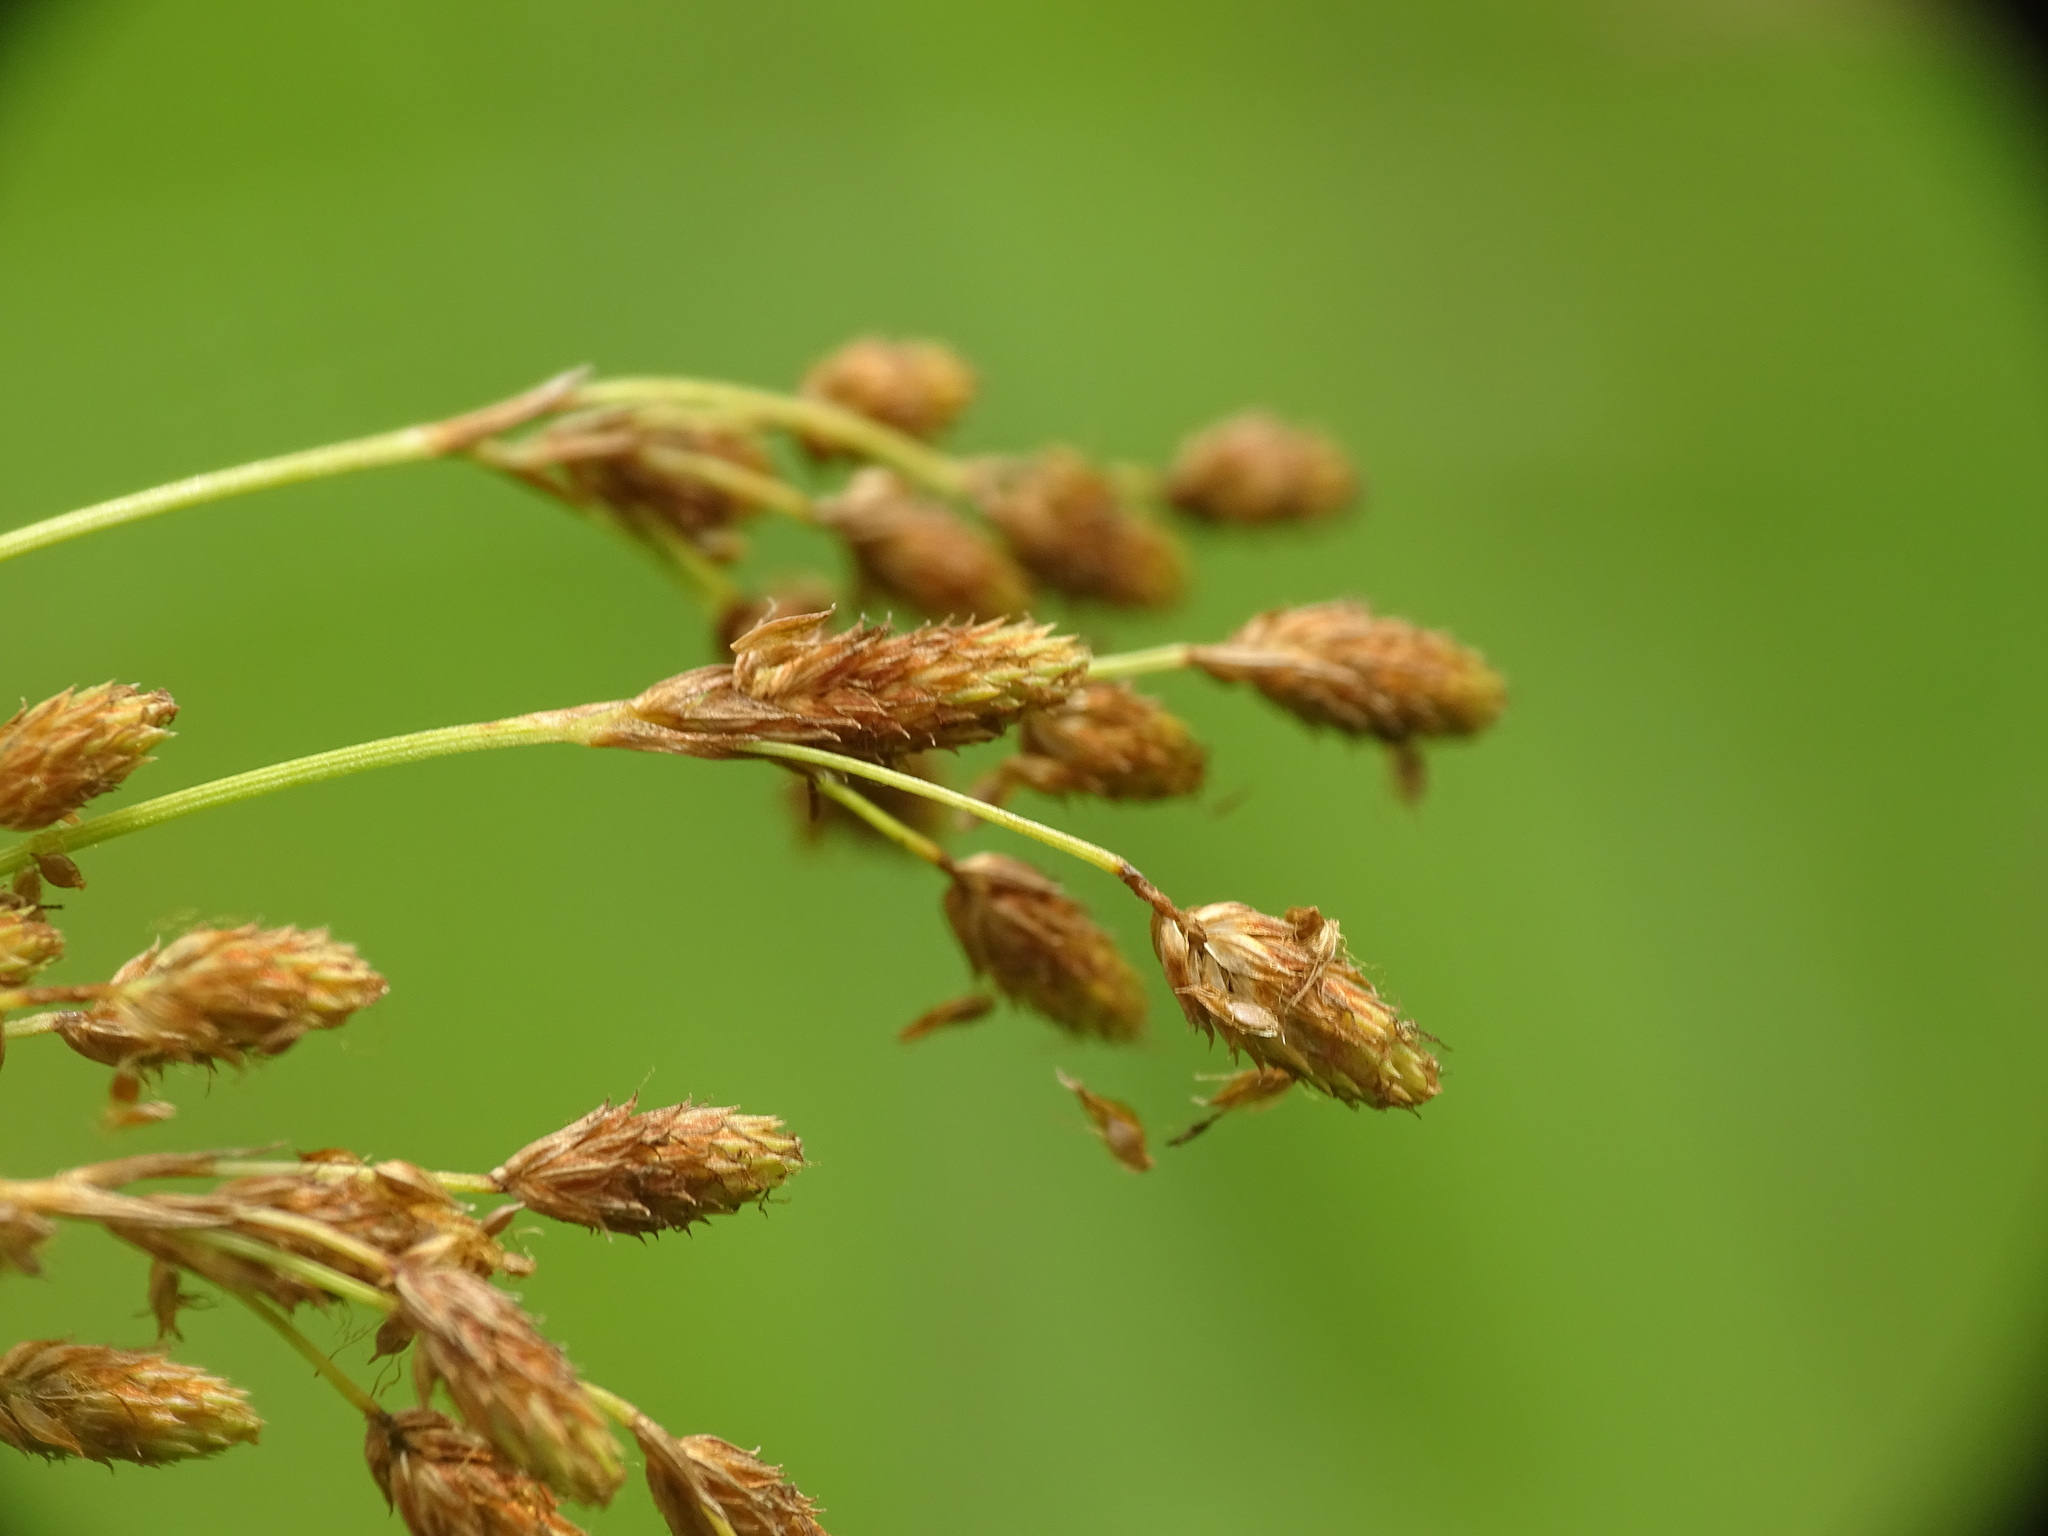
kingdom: Plantae
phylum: Tracheophyta
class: Liliopsida
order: Poales
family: Cyperaceae
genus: Scirpus
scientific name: Scirpus pendulus
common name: Nodding bulrush
